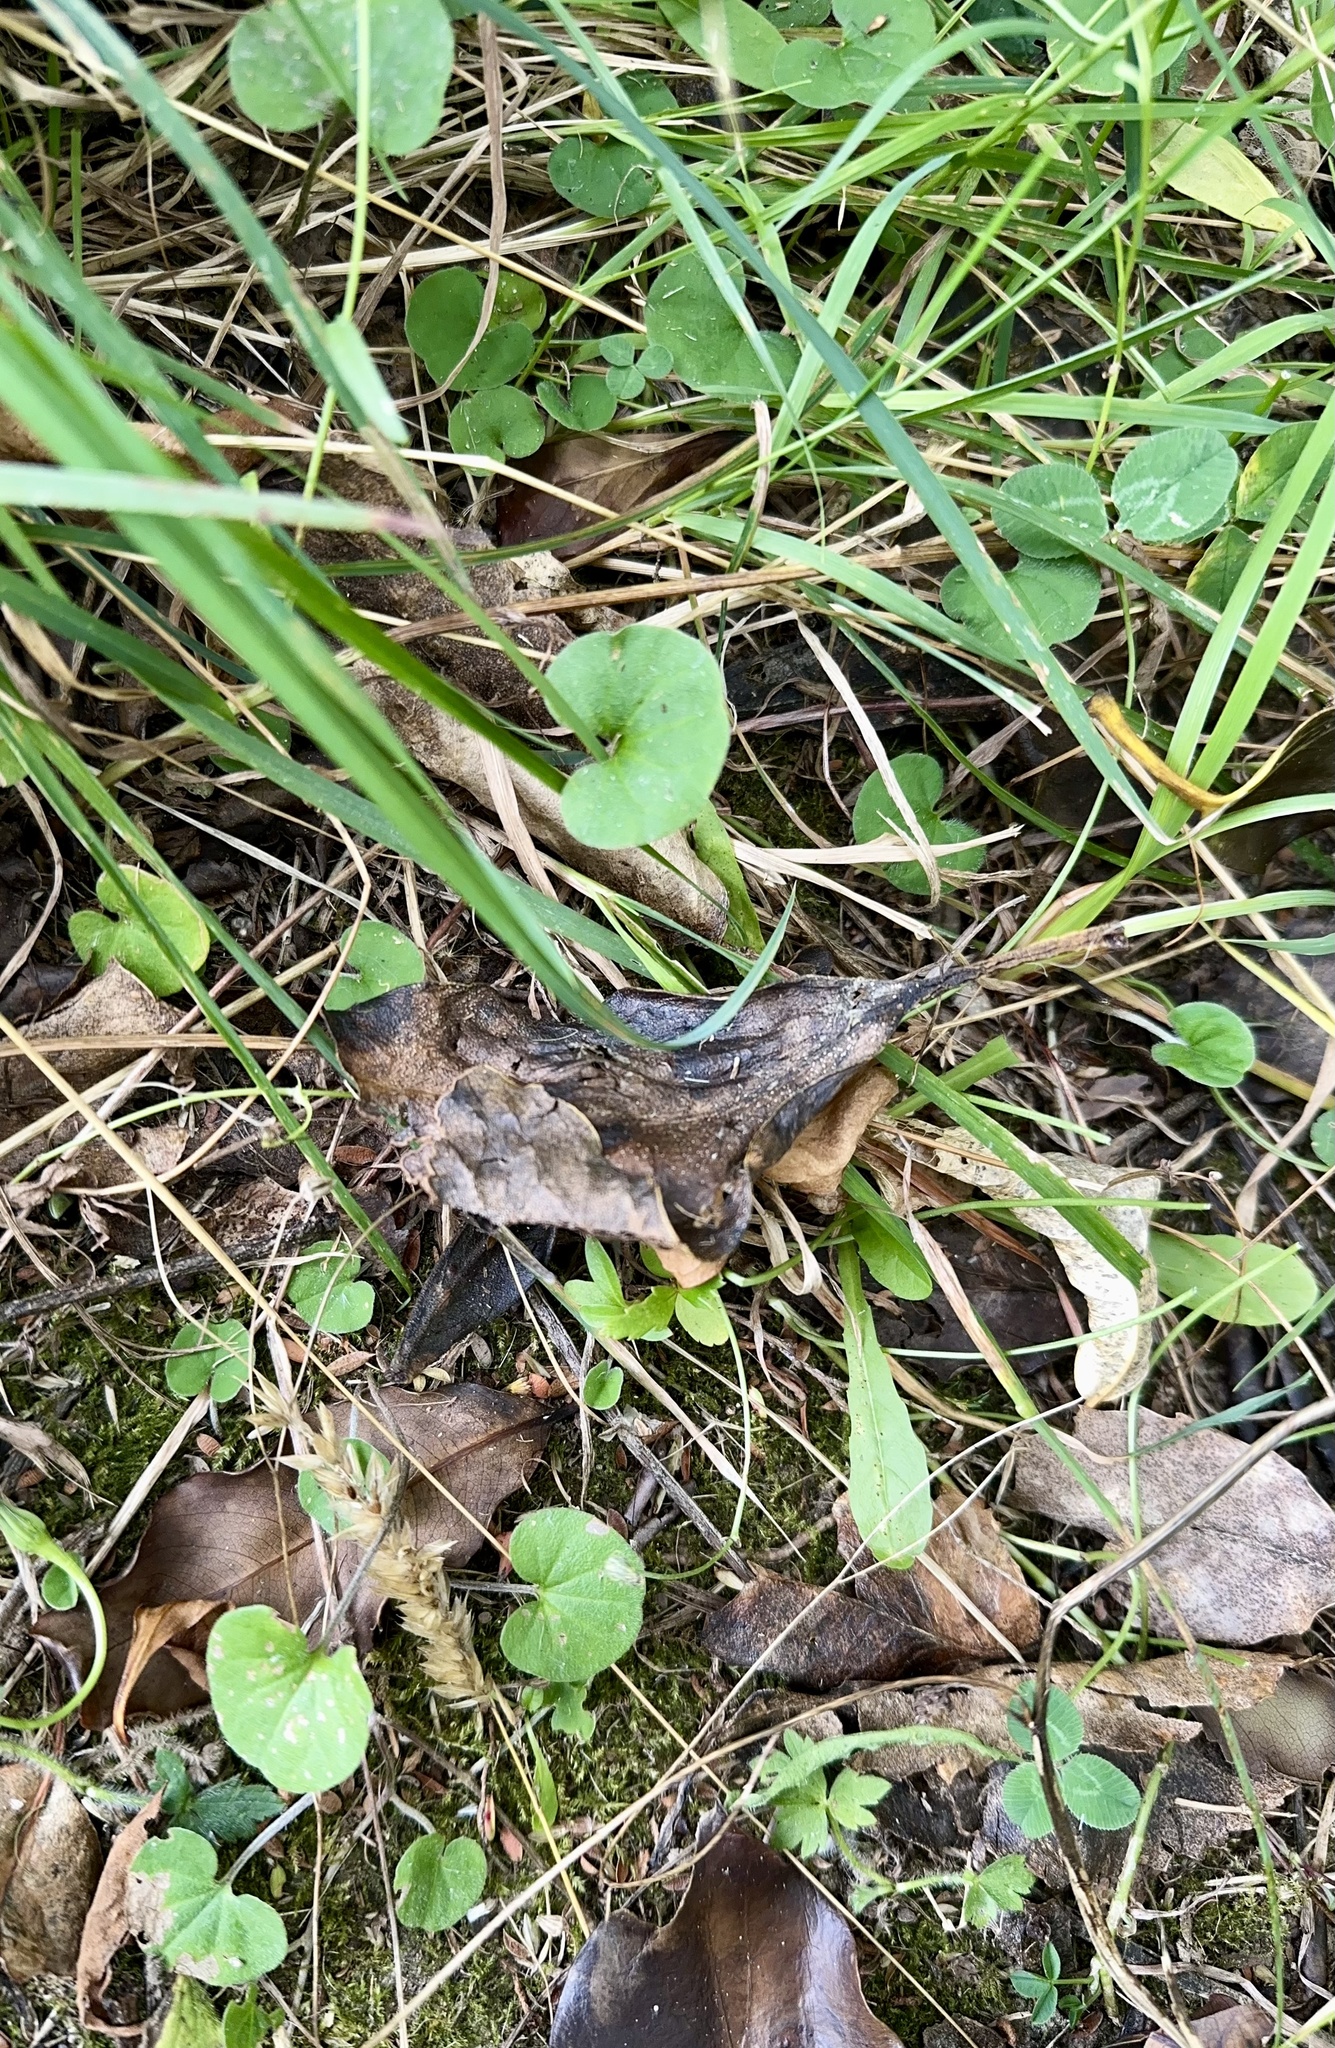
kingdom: Plantae
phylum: Tracheophyta
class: Magnoliopsida
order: Solanales
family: Convolvulaceae
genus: Dichondra
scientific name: Dichondra repens
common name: Kidneyweed
